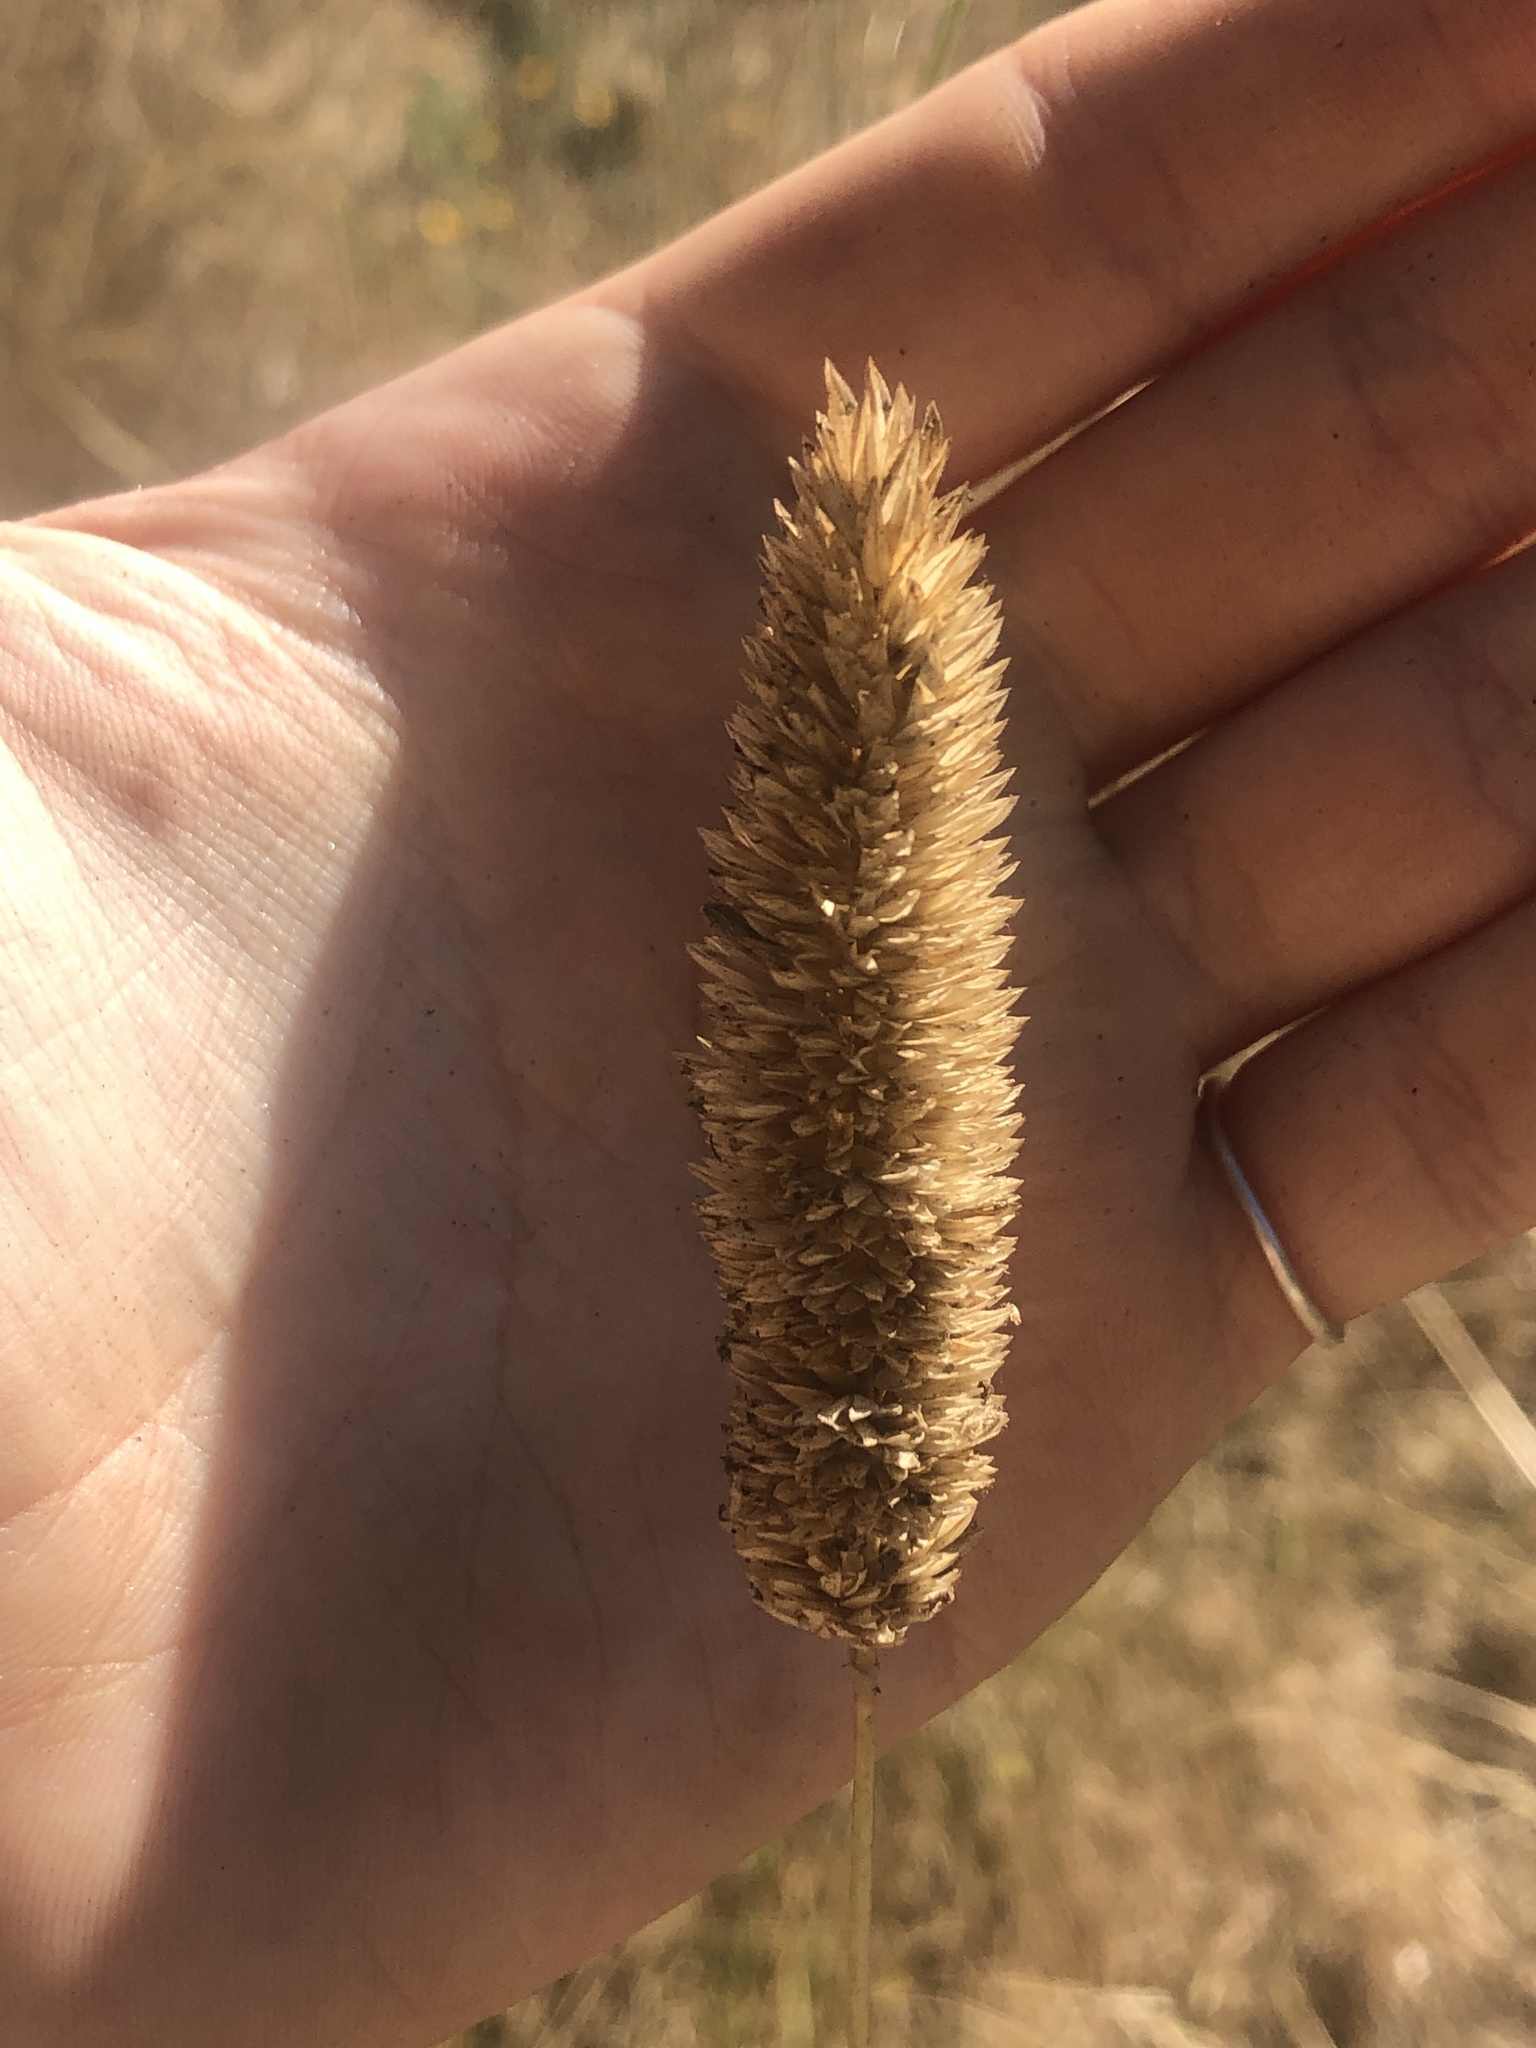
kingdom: Plantae
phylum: Tracheophyta
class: Liliopsida
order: Poales
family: Poaceae
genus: Phalaris
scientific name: Phalaris aquatica
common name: Bulbous canary-grass
